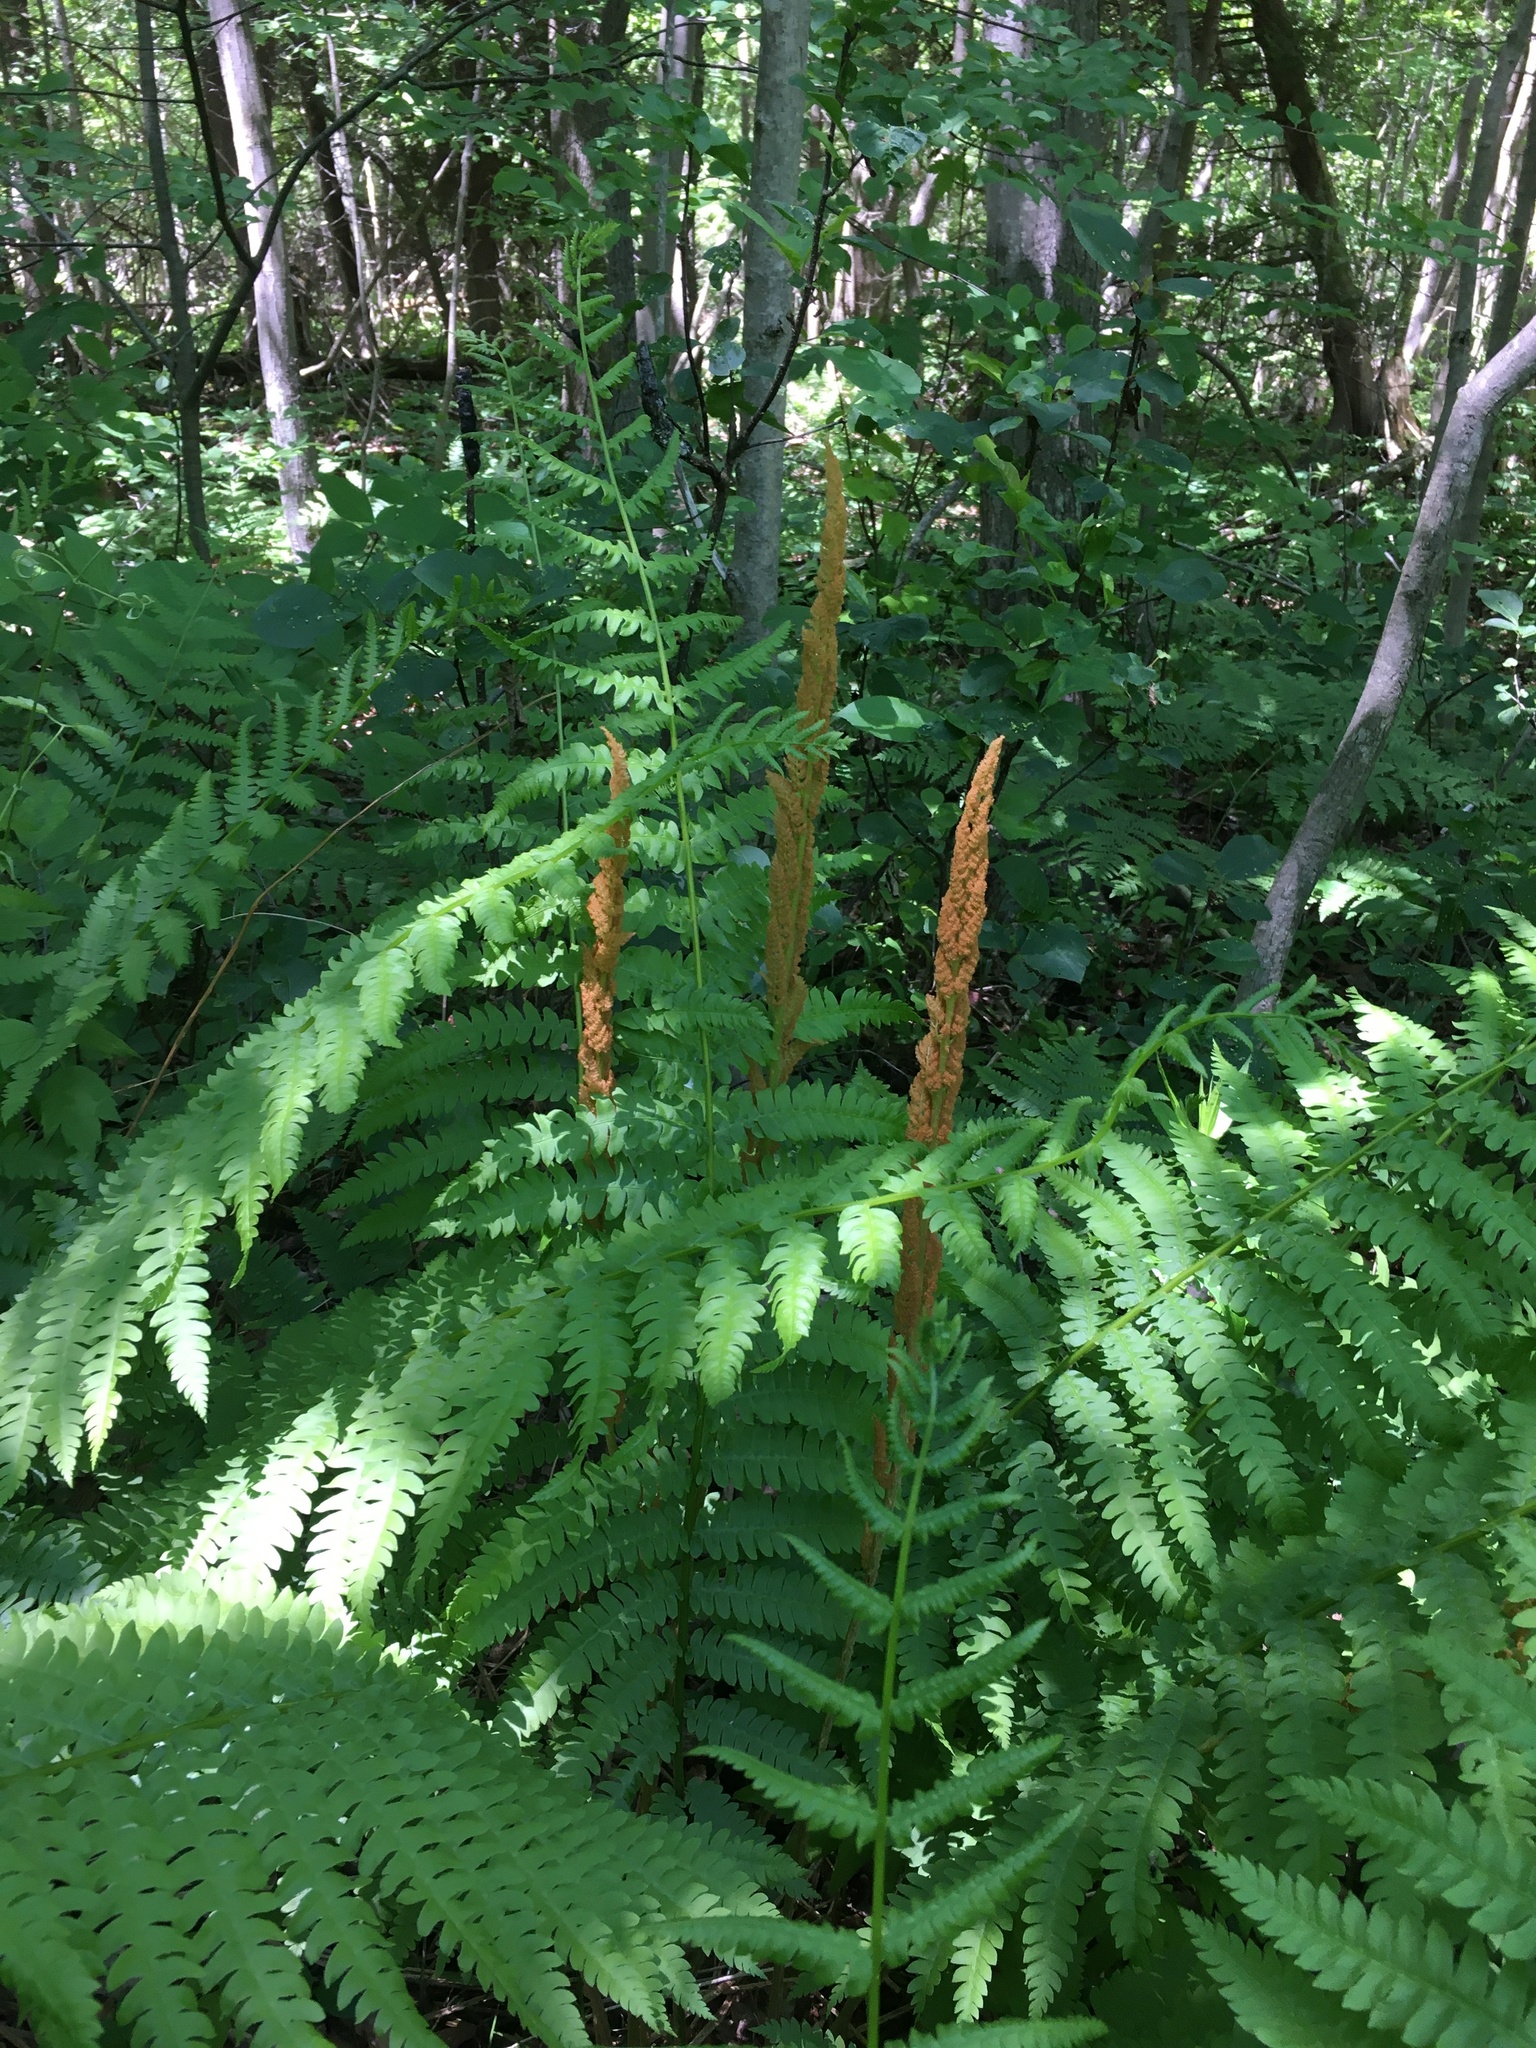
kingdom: Plantae
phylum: Tracheophyta
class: Polypodiopsida
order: Osmundales
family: Osmundaceae
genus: Osmundastrum
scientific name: Osmundastrum cinnamomeum
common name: Cinnamon fern
